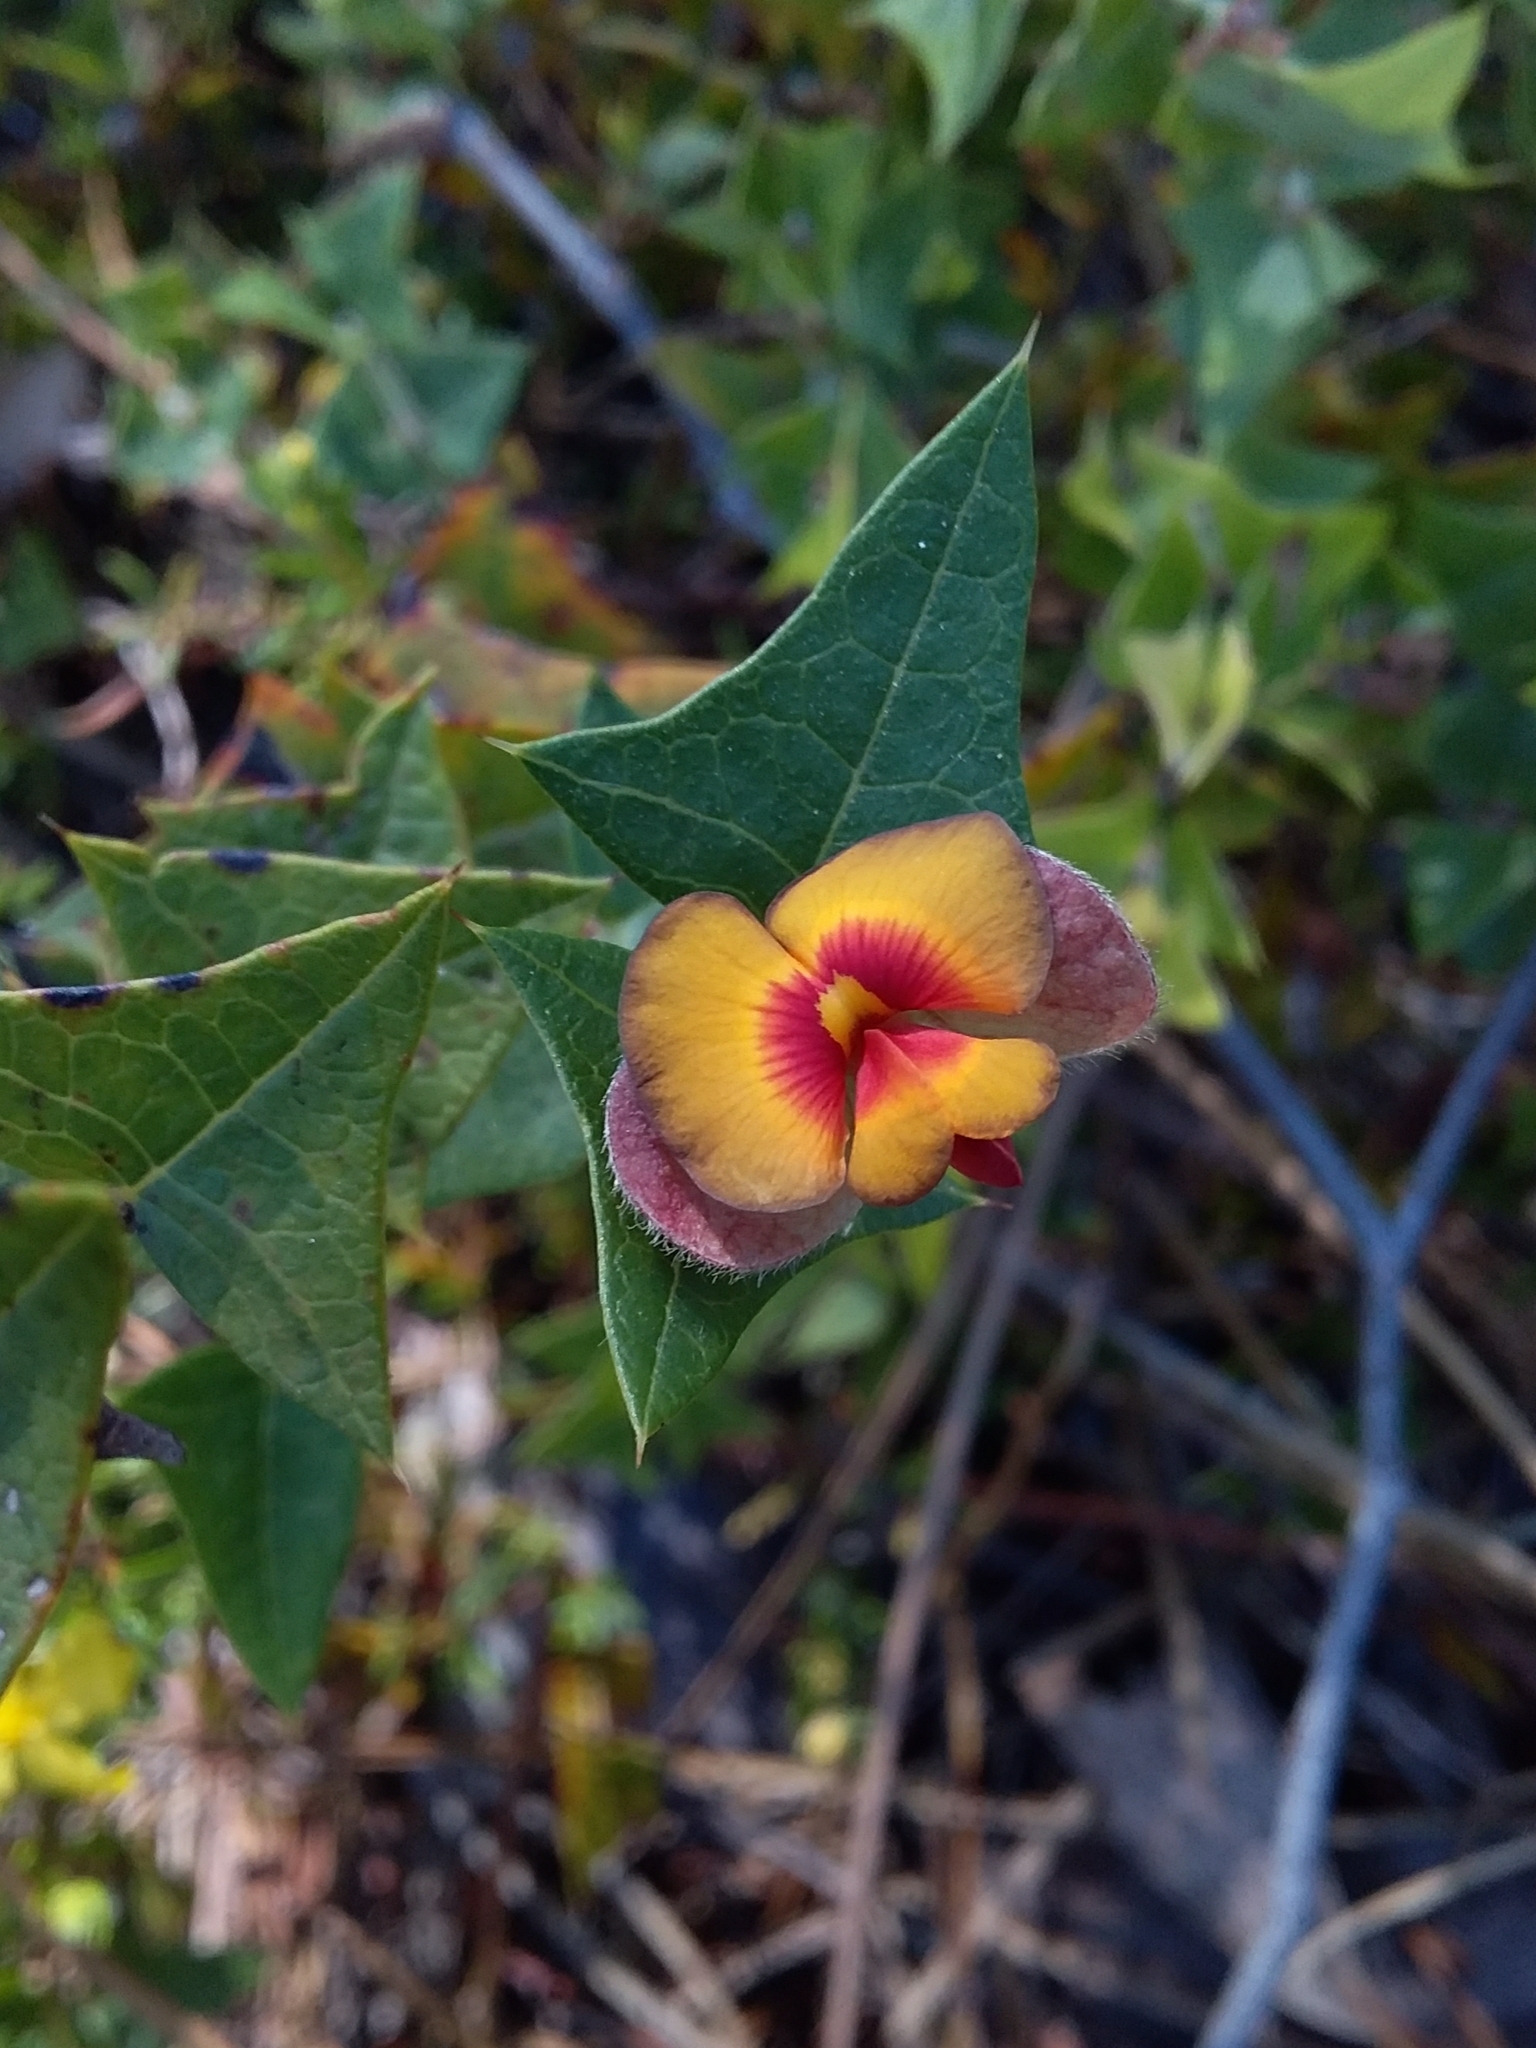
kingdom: Plantae
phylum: Tracheophyta
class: Magnoliopsida
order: Fabales
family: Fabaceae
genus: Platylobium
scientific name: Platylobium obtusangulum
